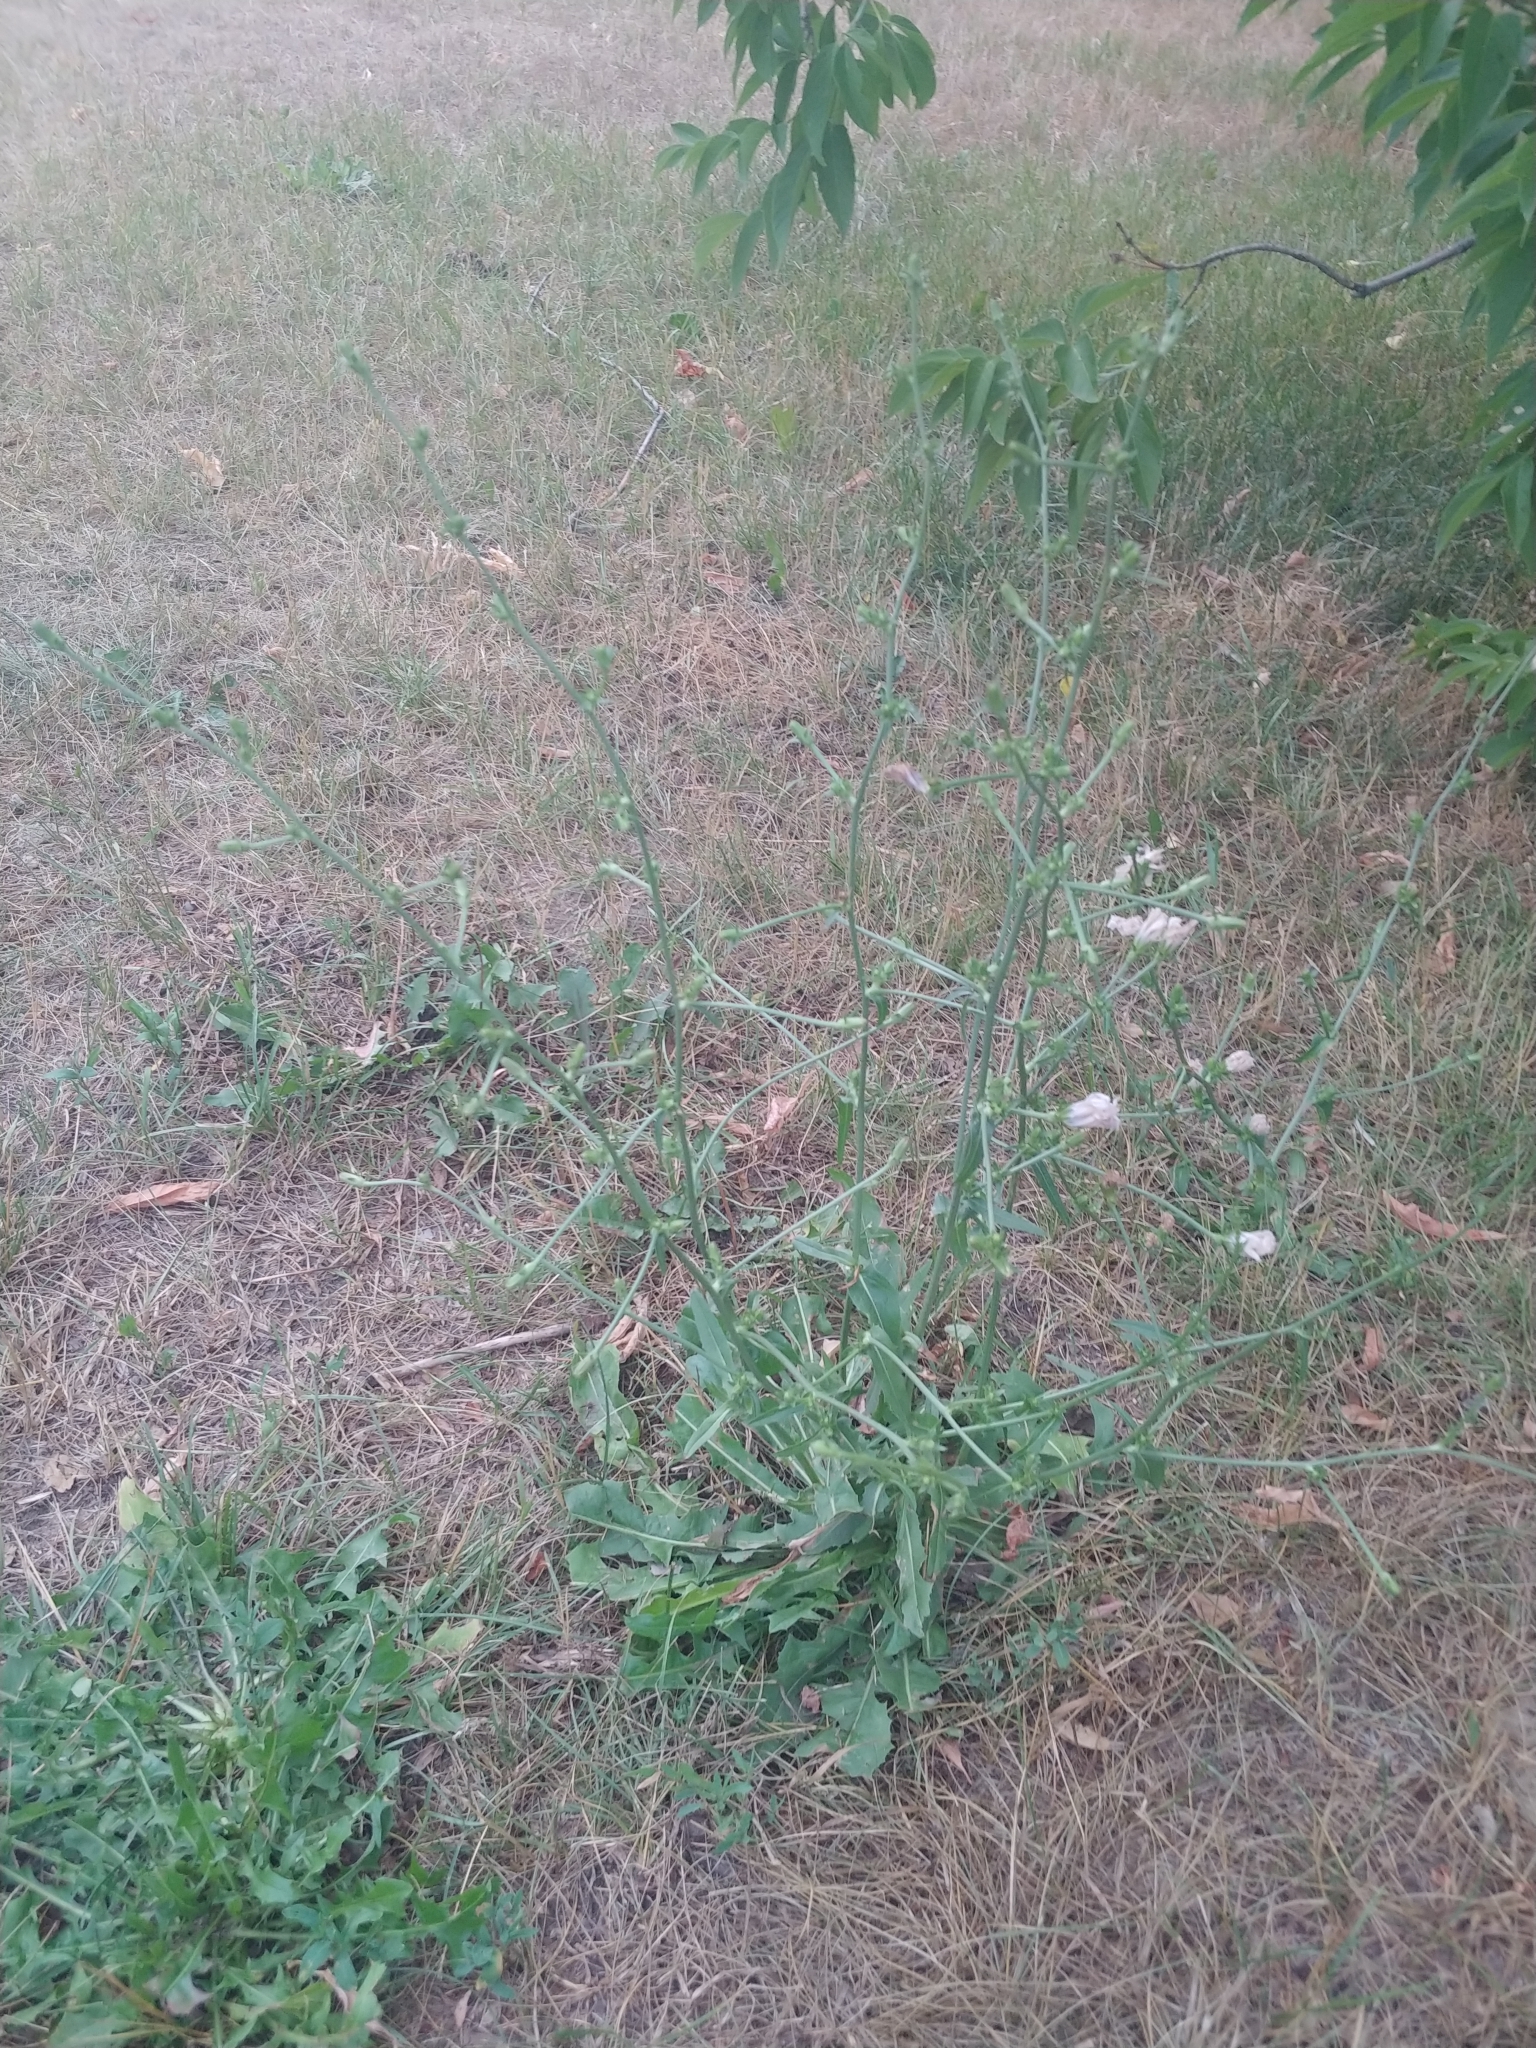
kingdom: Plantae
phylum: Tracheophyta
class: Magnoliopsida
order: Asterales
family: Asteraceae
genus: Cichorium
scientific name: Cichorium intybus
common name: Chicory
